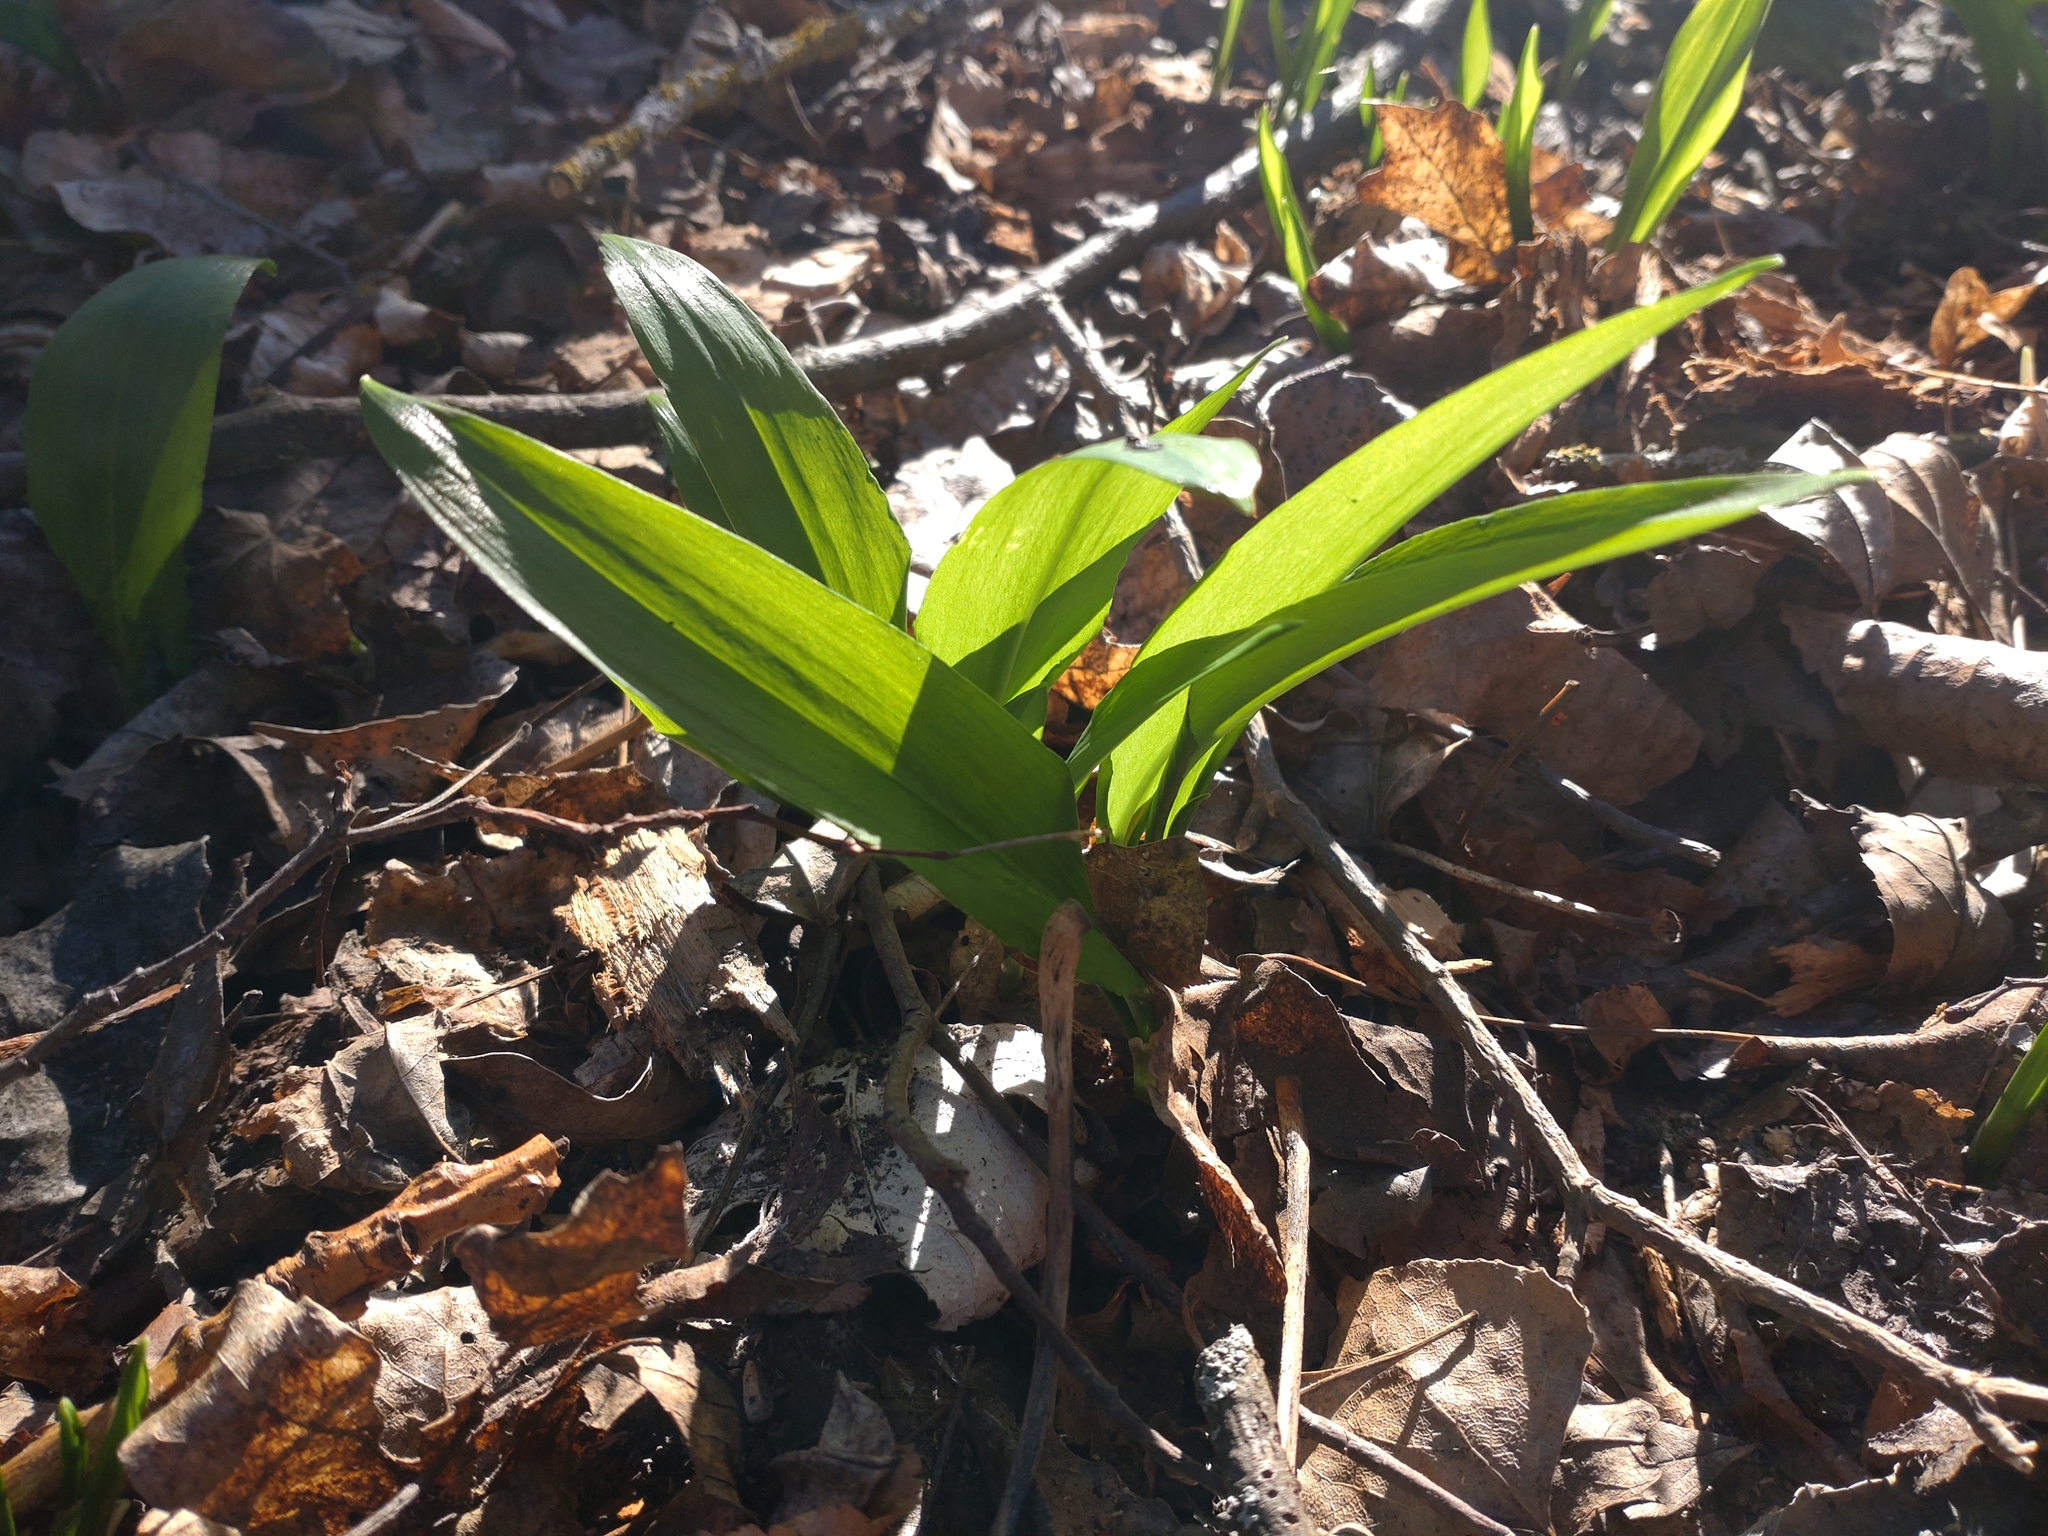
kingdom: Plantae
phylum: Tracheophyta
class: Liliopsida
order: Asparagales
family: Amaryllidaceae
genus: Allium
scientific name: Allium ursinum
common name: Ramsons
